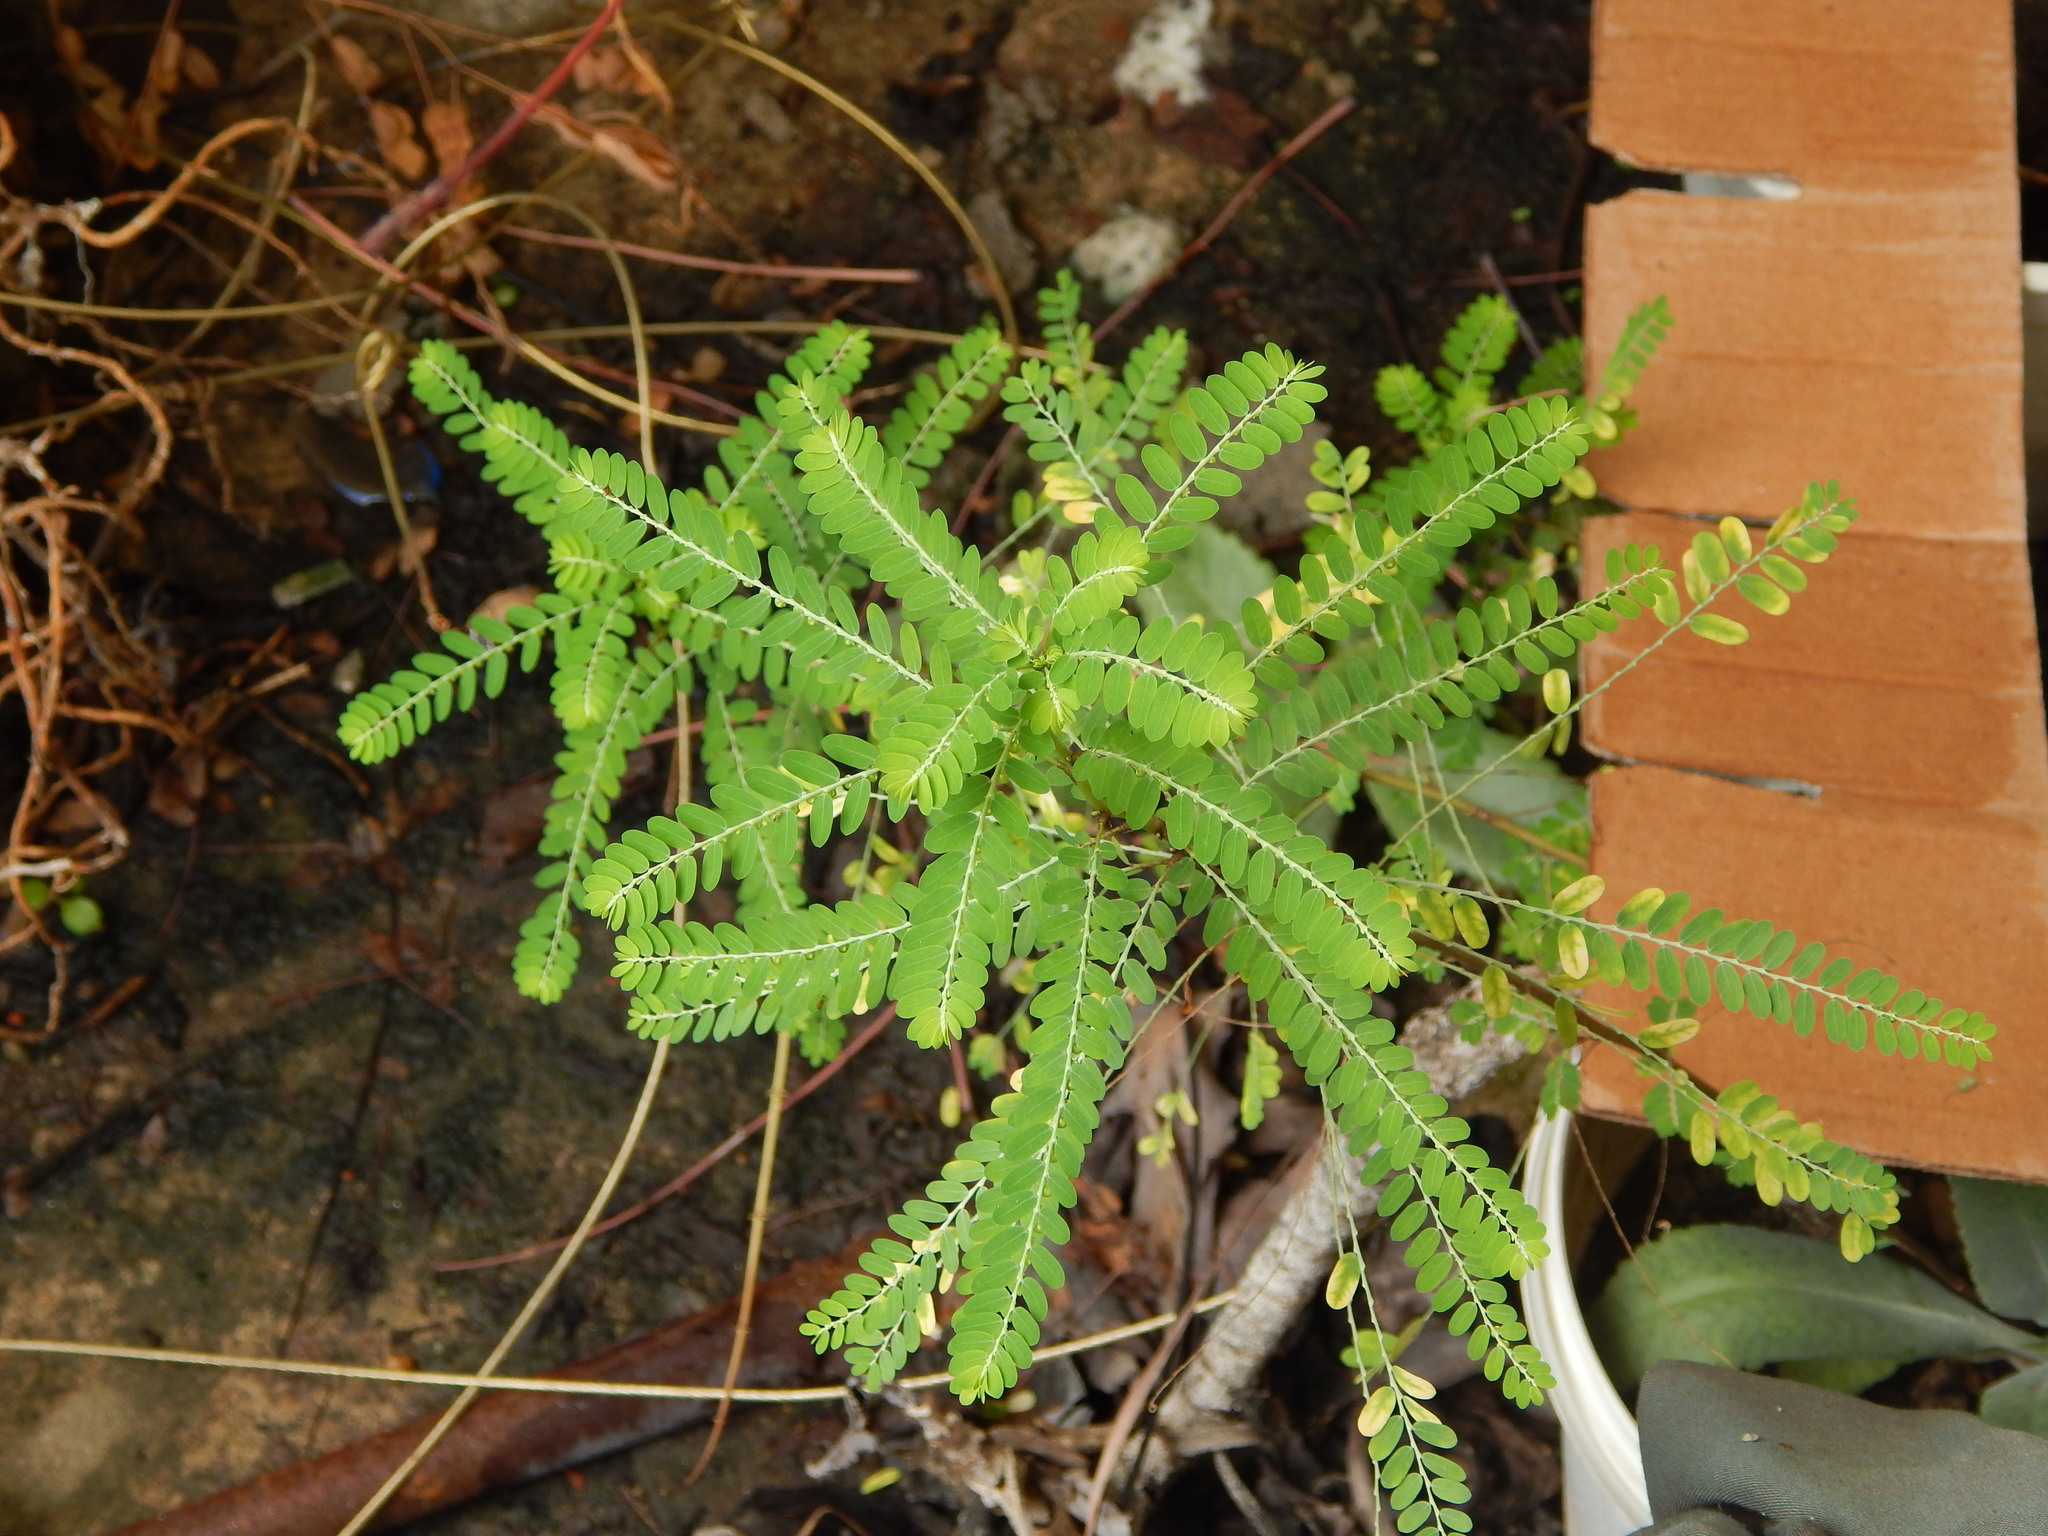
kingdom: Plantae
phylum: Tracheophyta
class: Magnoliopsida
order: Malpighiales
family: Phyllanthaceae
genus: Phyllanthus
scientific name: Phyllanthus amarus
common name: Carry me seed
